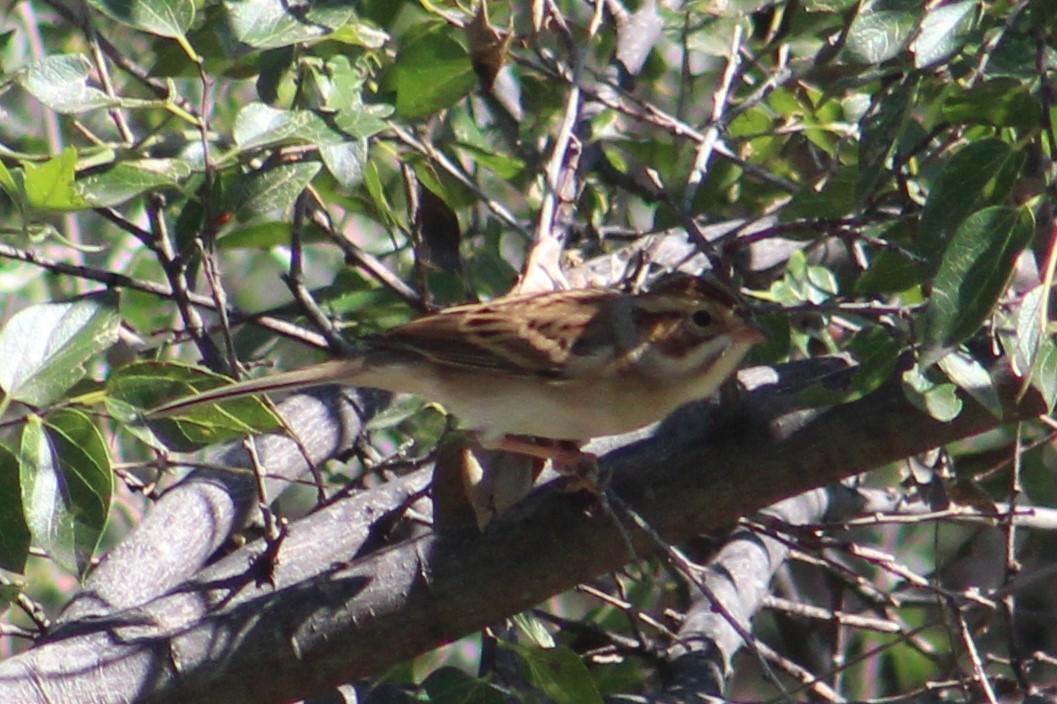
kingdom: Animalia
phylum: Chordata
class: Aves
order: Passeriformes
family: Passerellidae
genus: Spizella
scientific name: Spizella pallida
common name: Clay-colored sparrow
